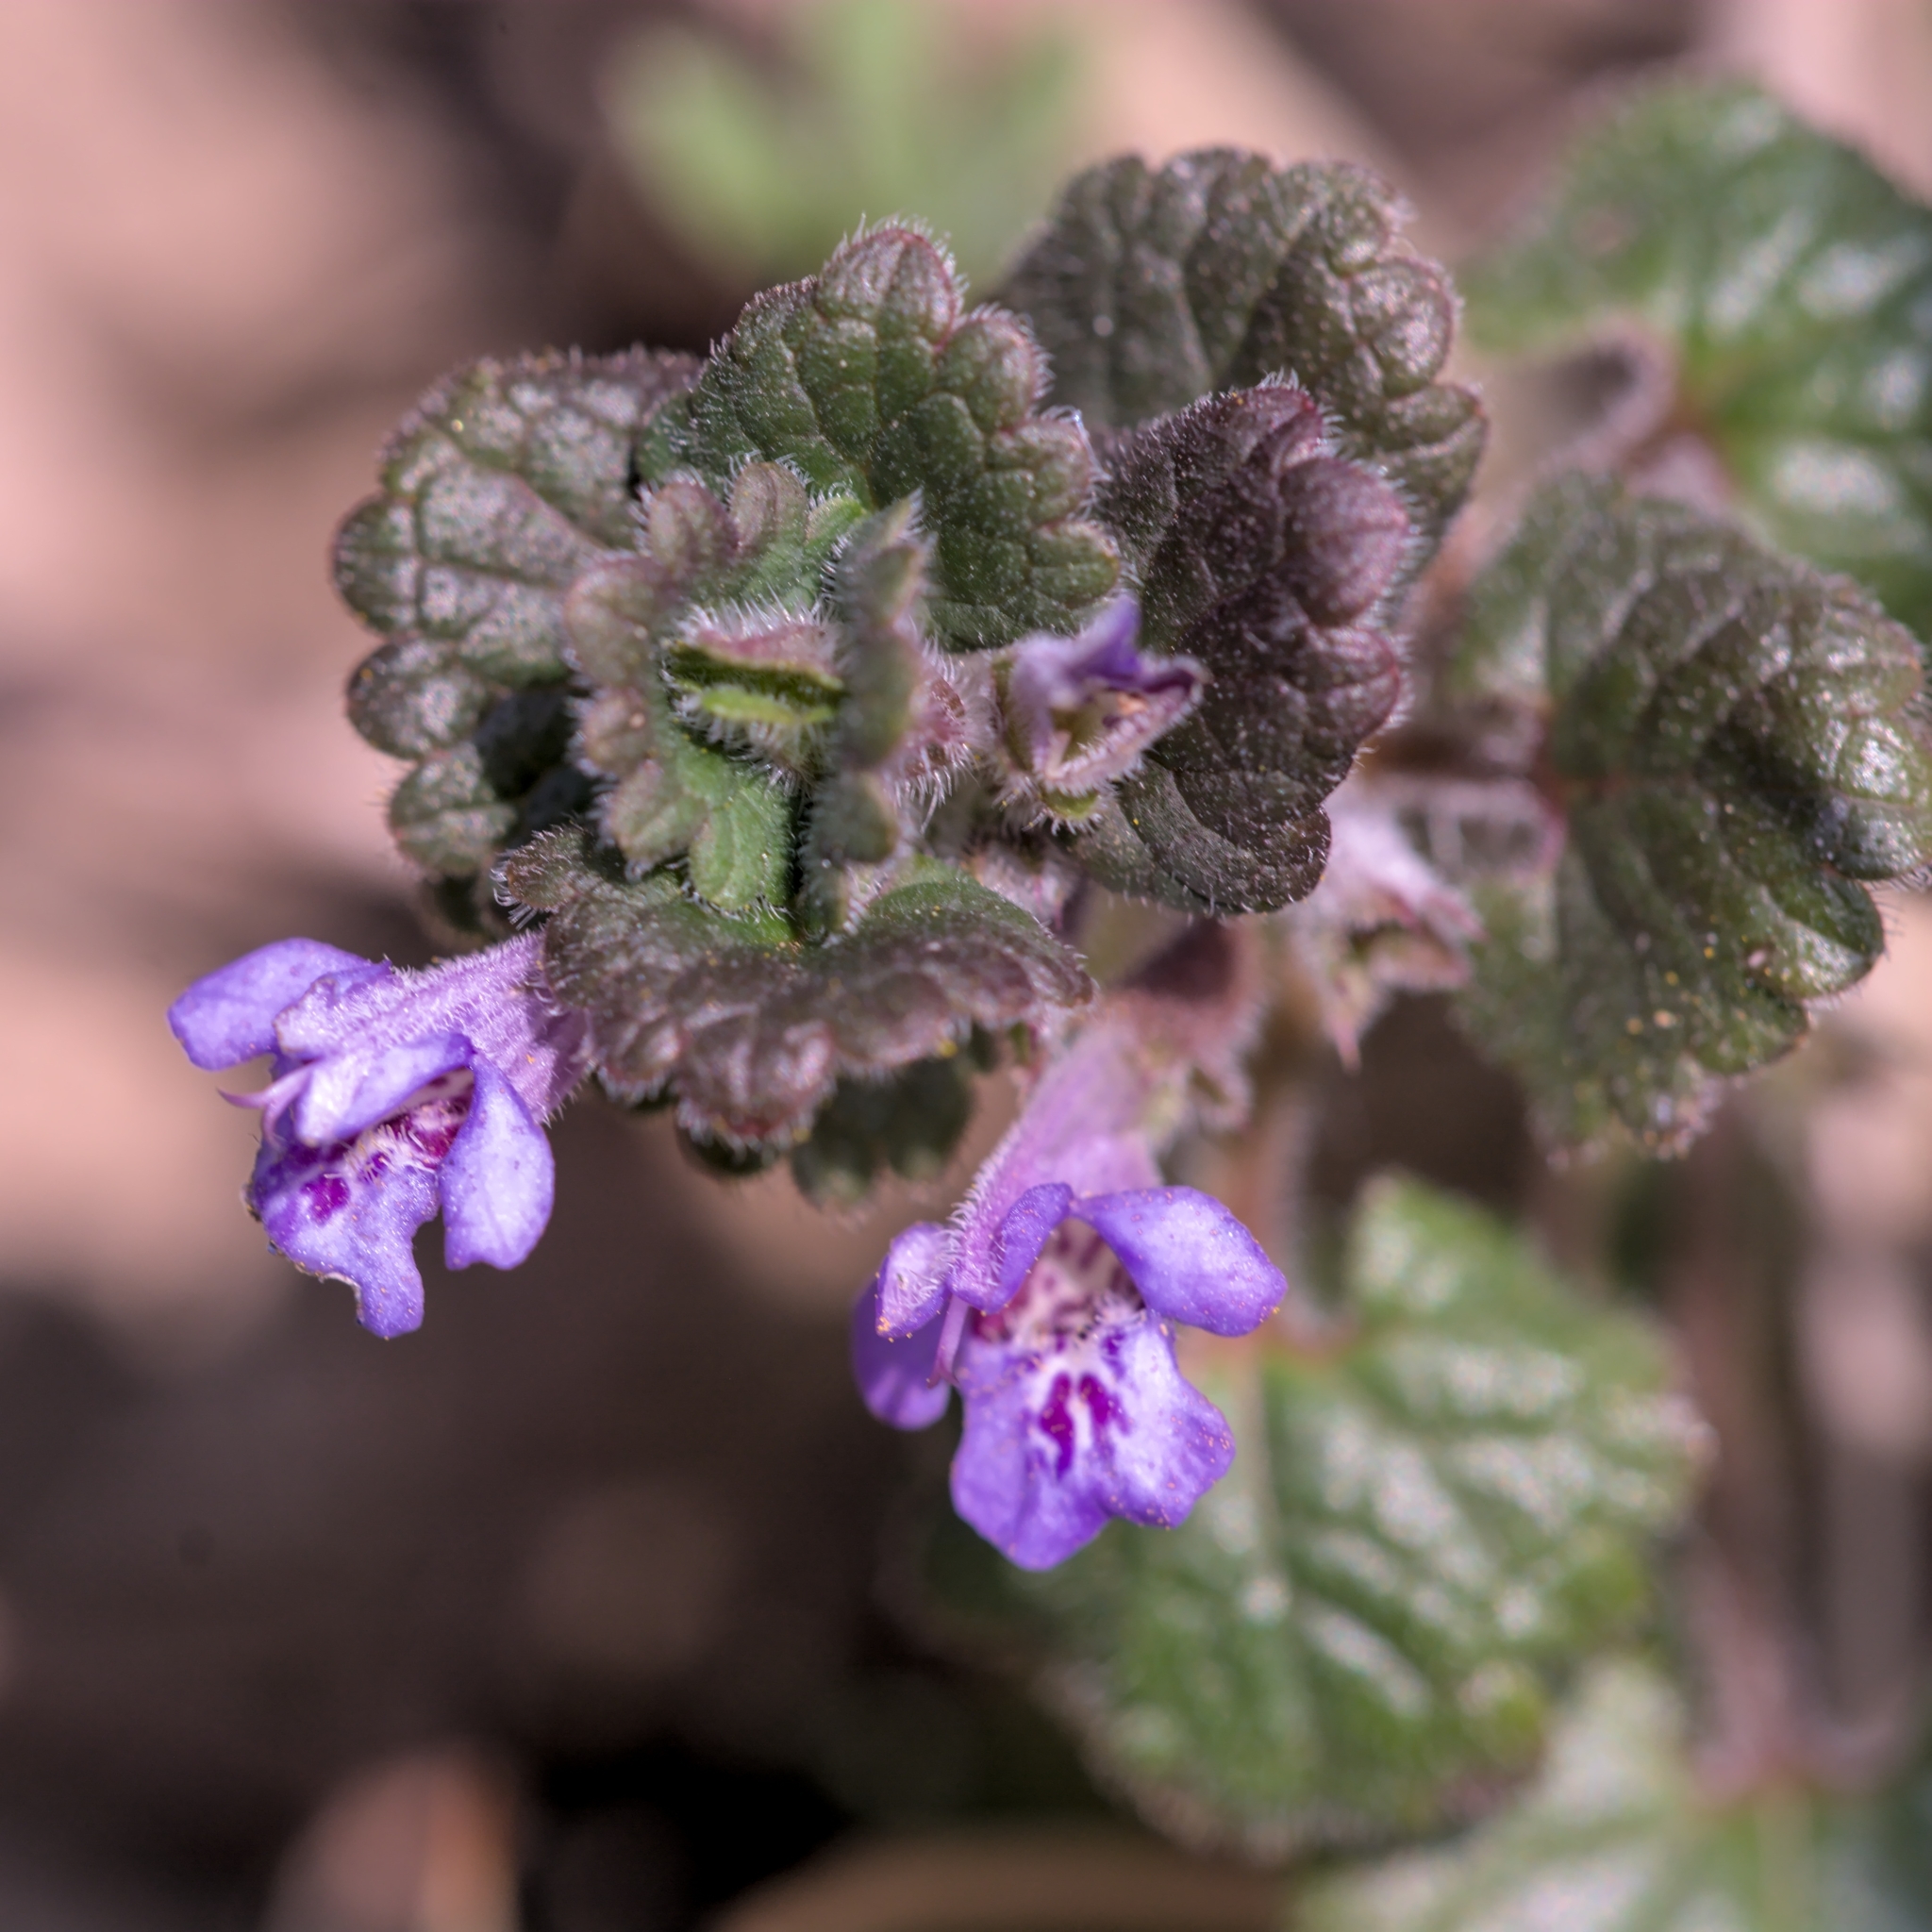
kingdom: Plantae
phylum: Tracheophyta
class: Magnoliopsida
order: Lamiales
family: Lamiaceae
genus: Glechoma
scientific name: Glechoma hederacea
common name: Ground ivy
